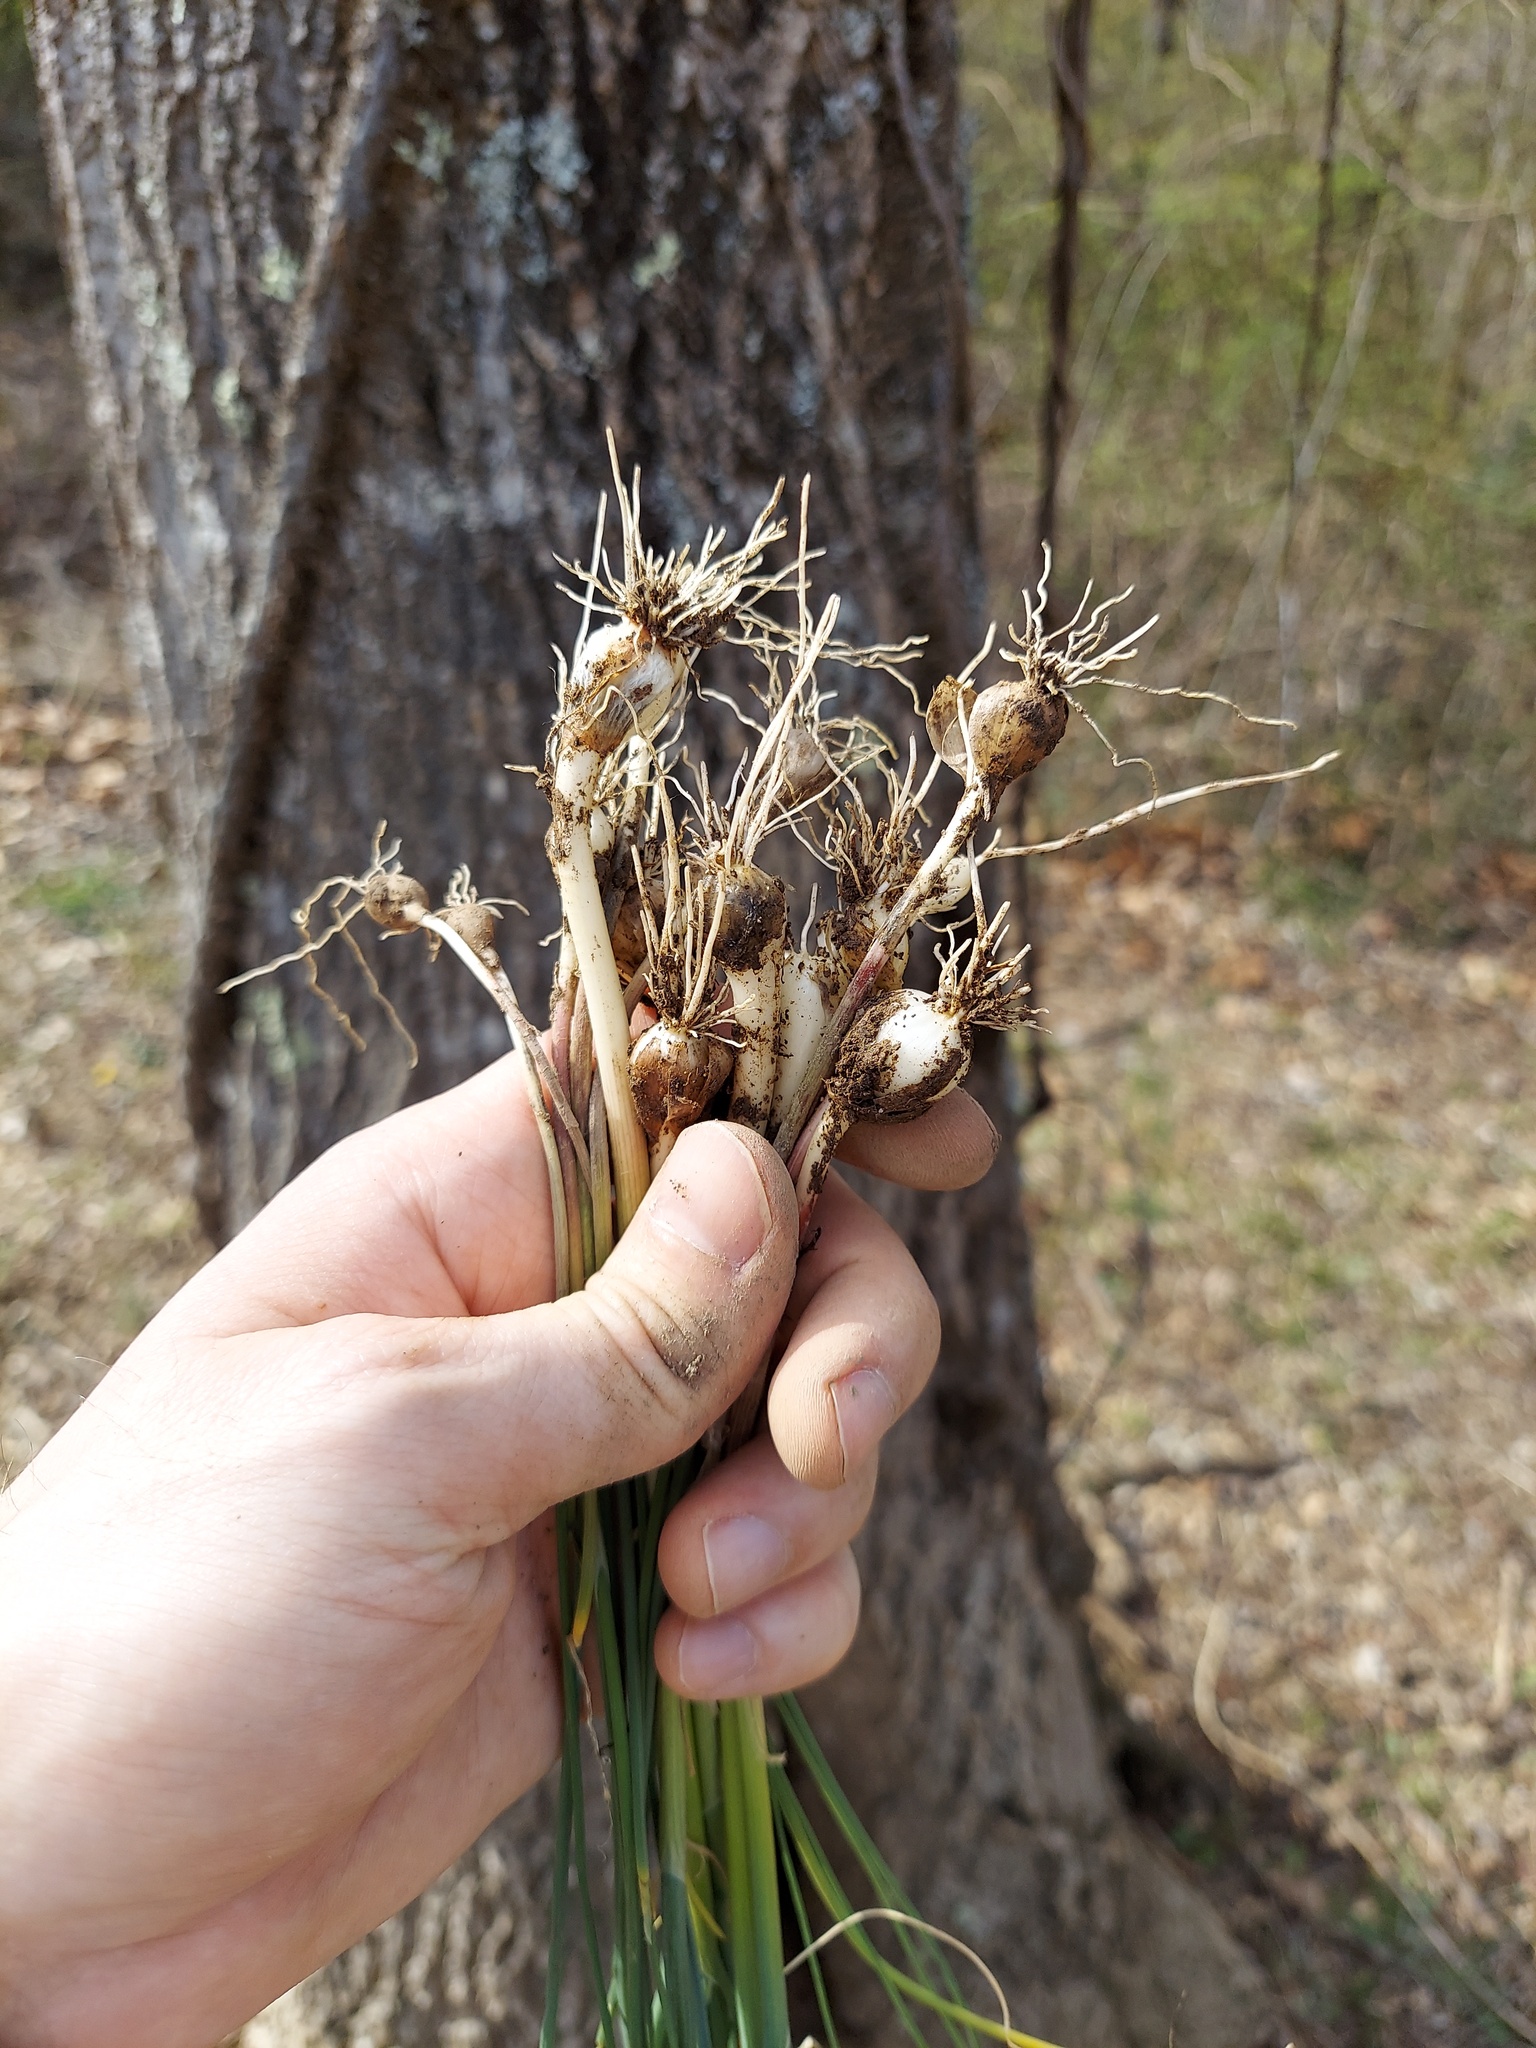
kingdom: Plantae
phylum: Tracheophyta
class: Liliopsida
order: Asparagales
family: Amaryllidaceae
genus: Allium
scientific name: Allium vineale
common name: Crow garlic
